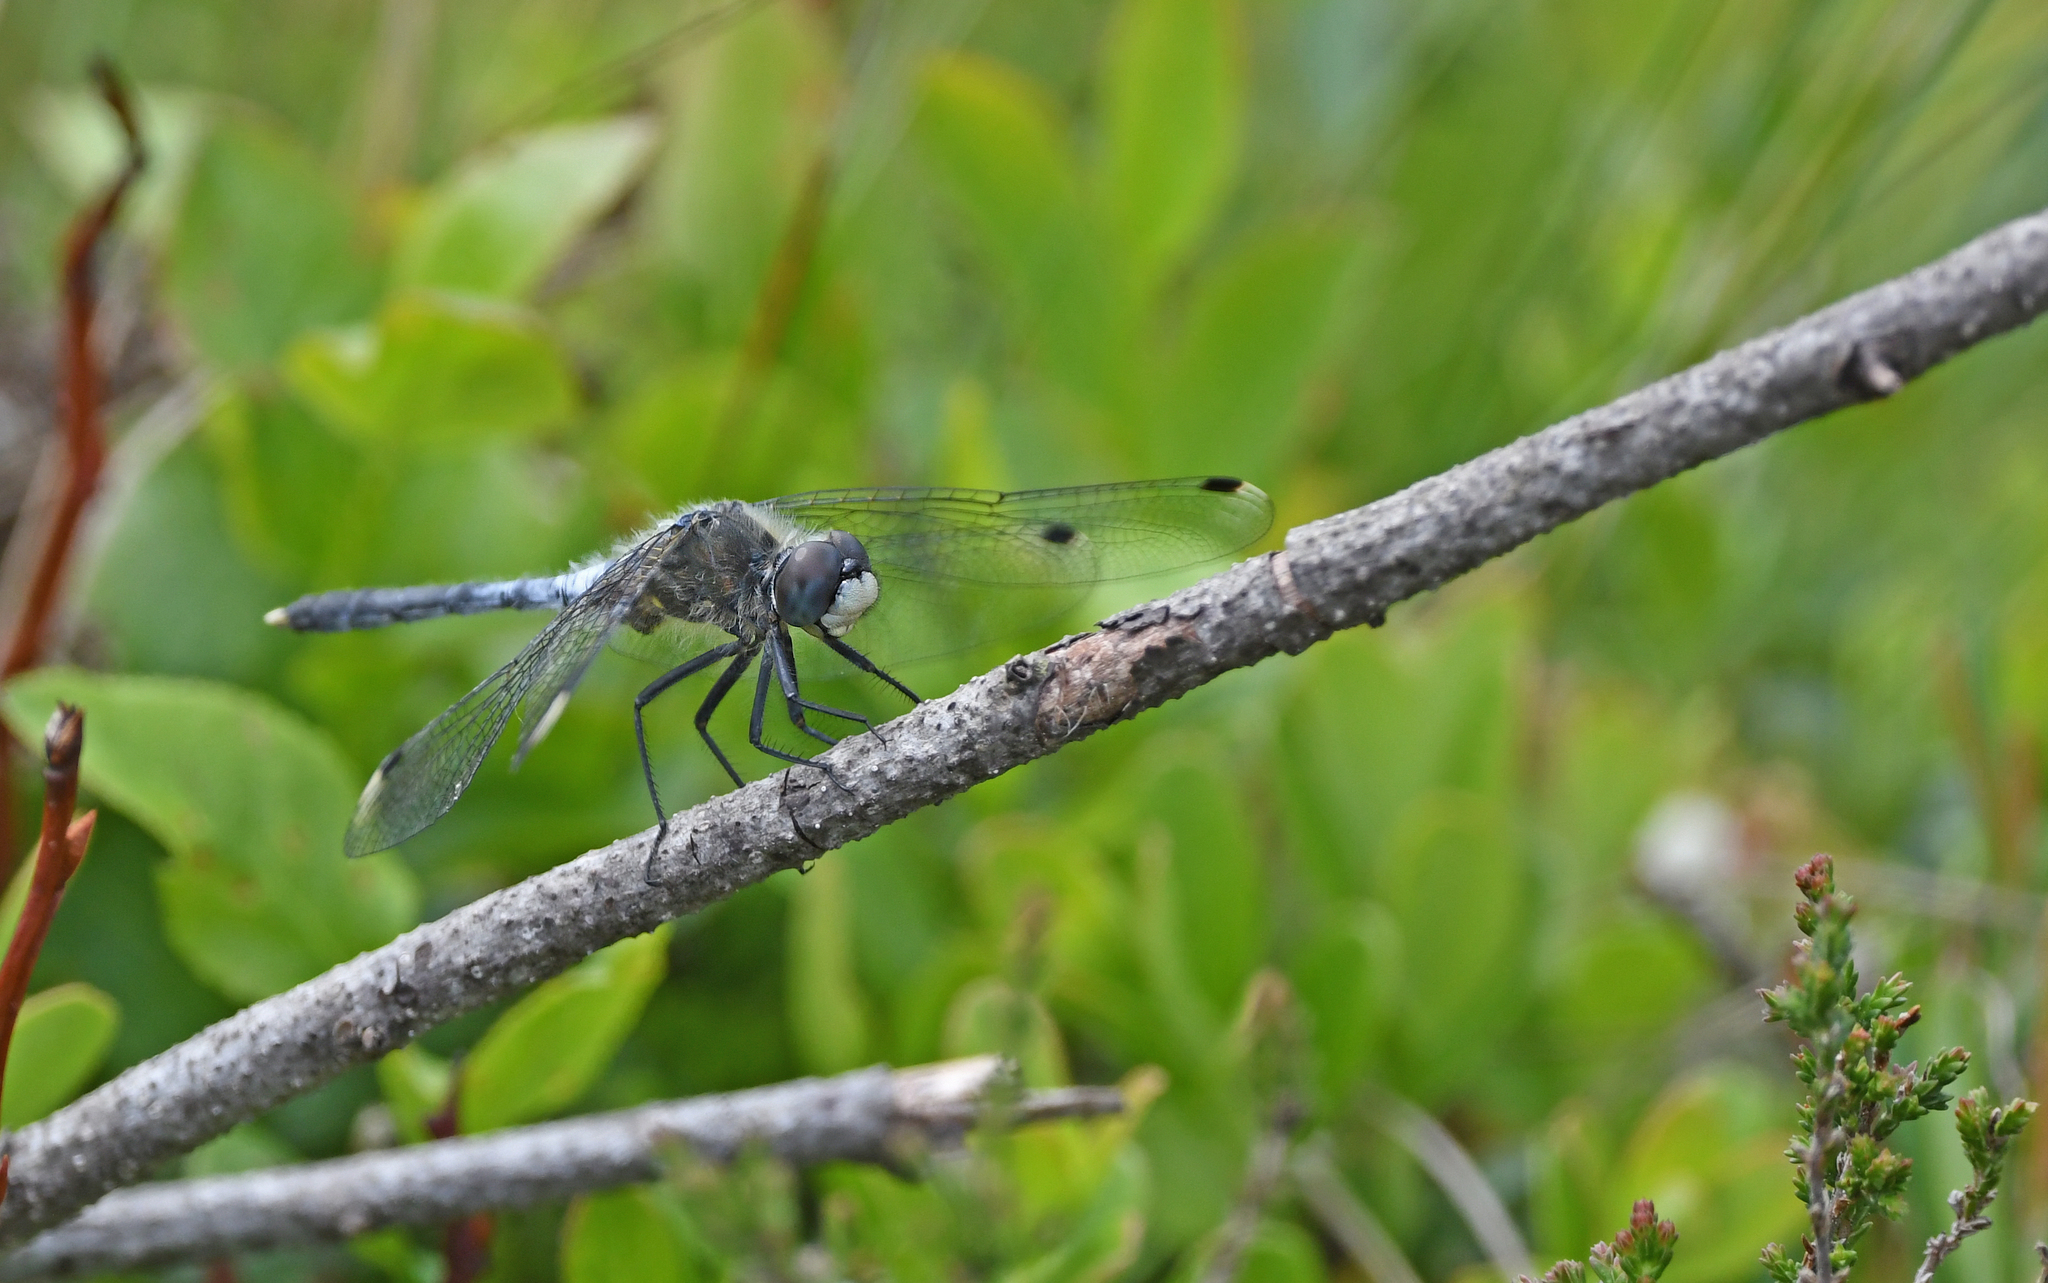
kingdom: Animalia
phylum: Arthropoda
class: Insecta
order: Odonata
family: Libellulidae
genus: Leucorrhinia
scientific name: Leucorrhinia albifrons
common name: Dark whiteface
